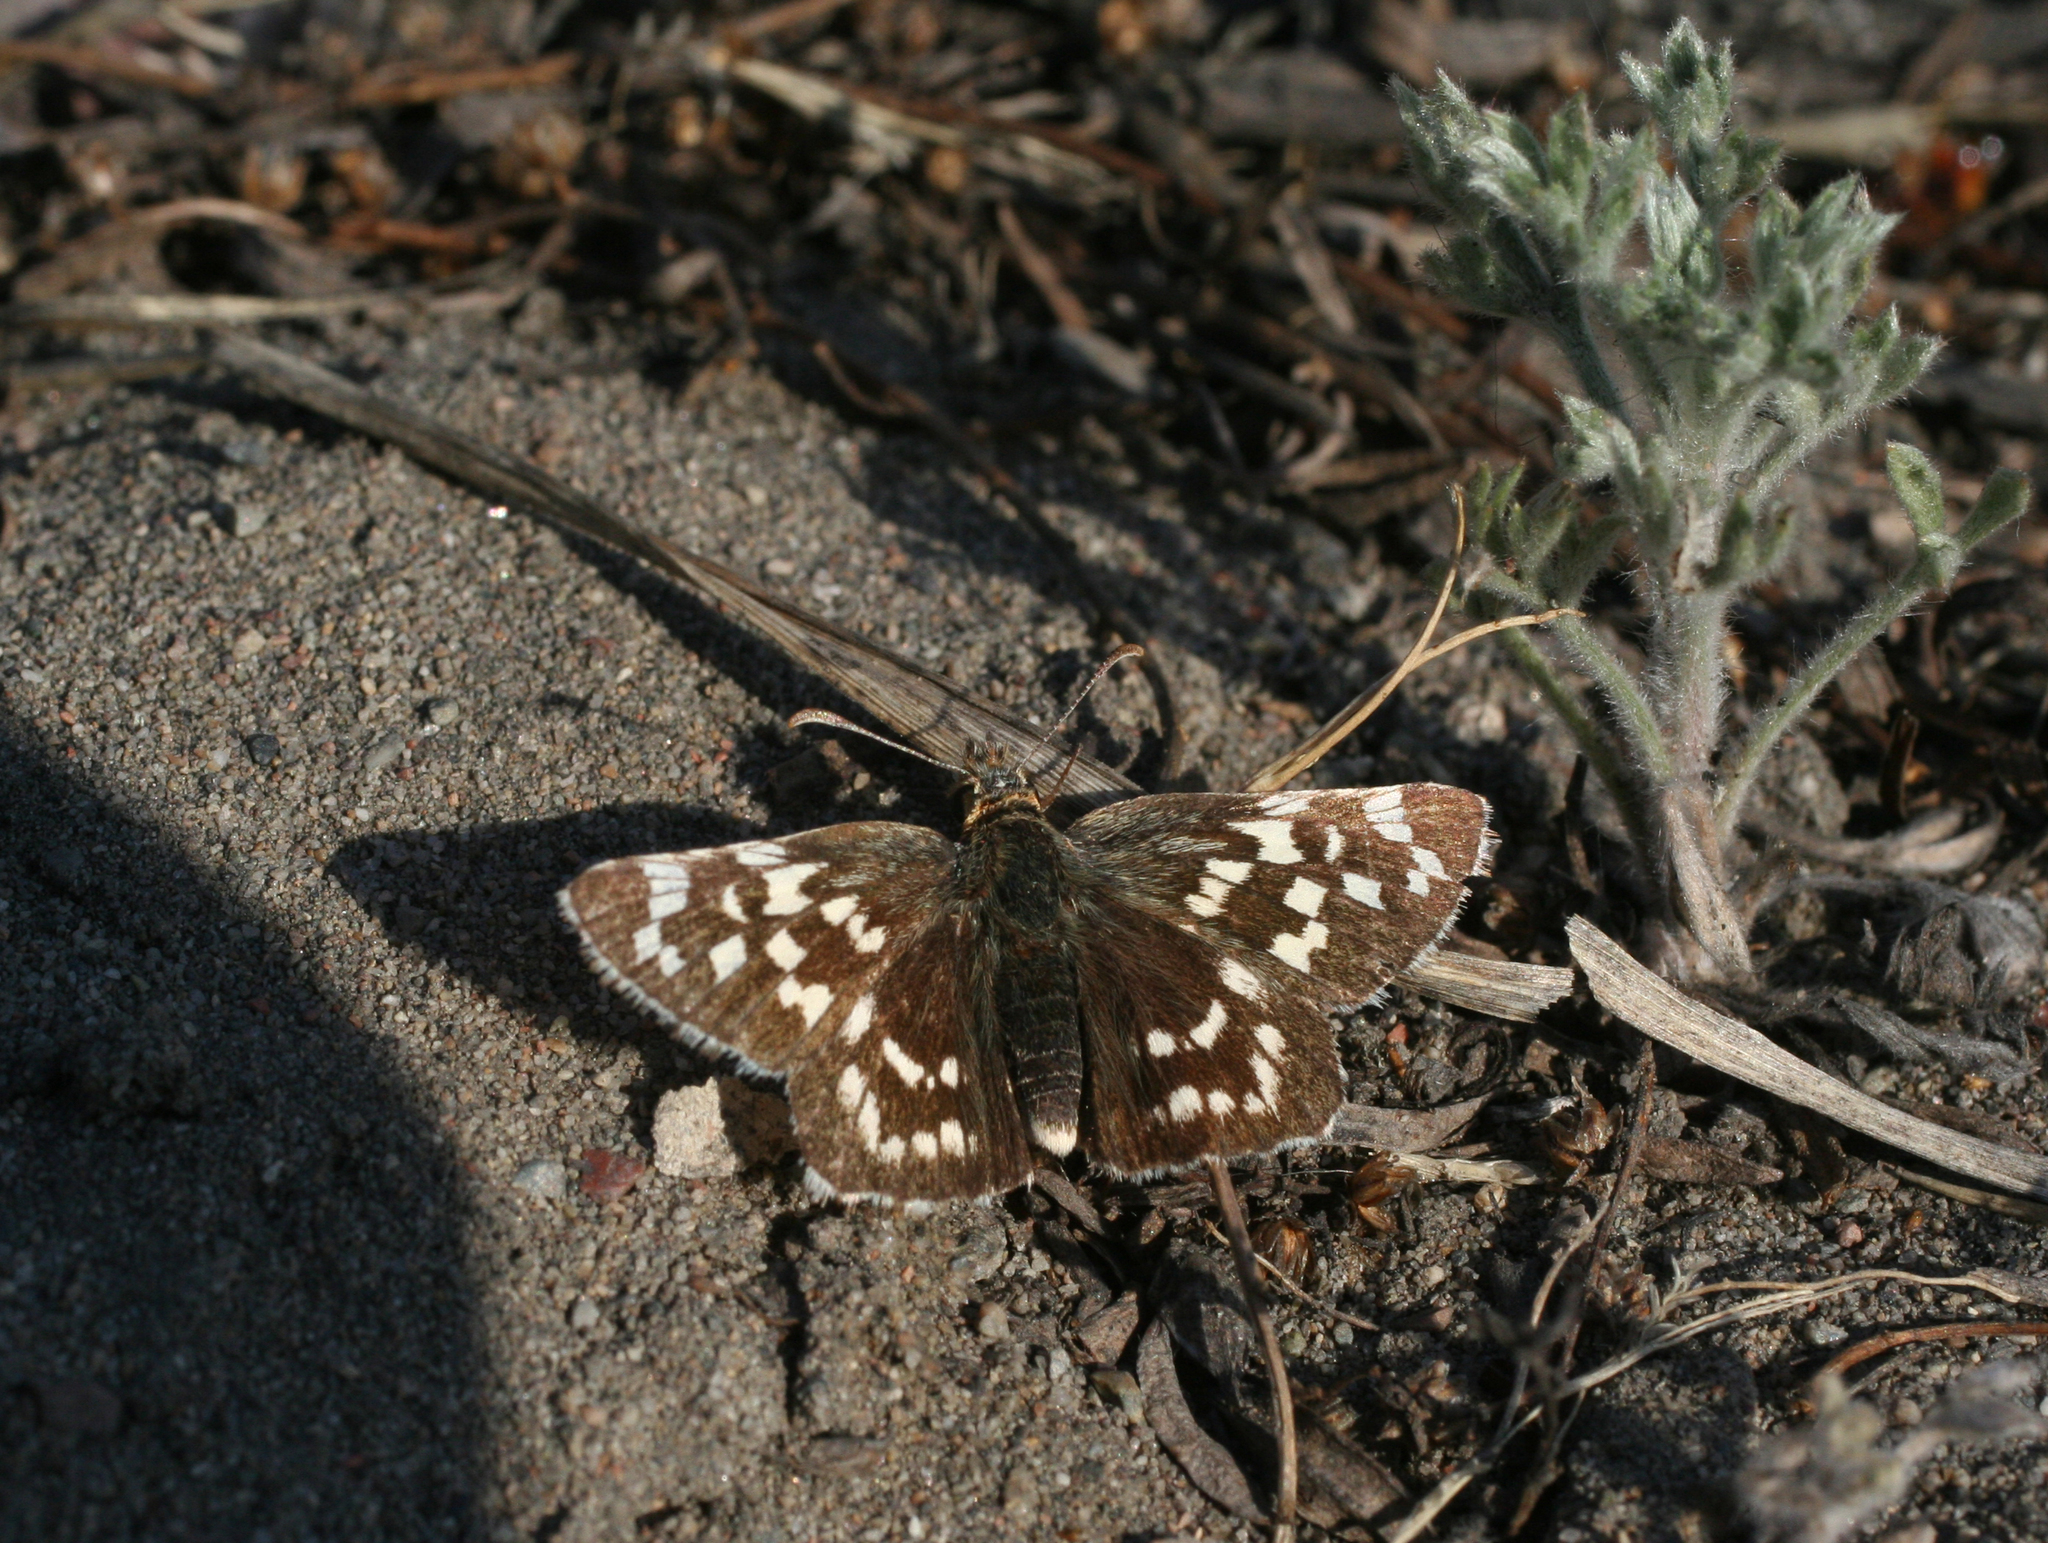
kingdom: Animalia
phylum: Arthropoda
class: Insecta
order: Lepidoptera
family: Hesperiidae
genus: Pyrgus
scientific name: Pyrgus maculatus
